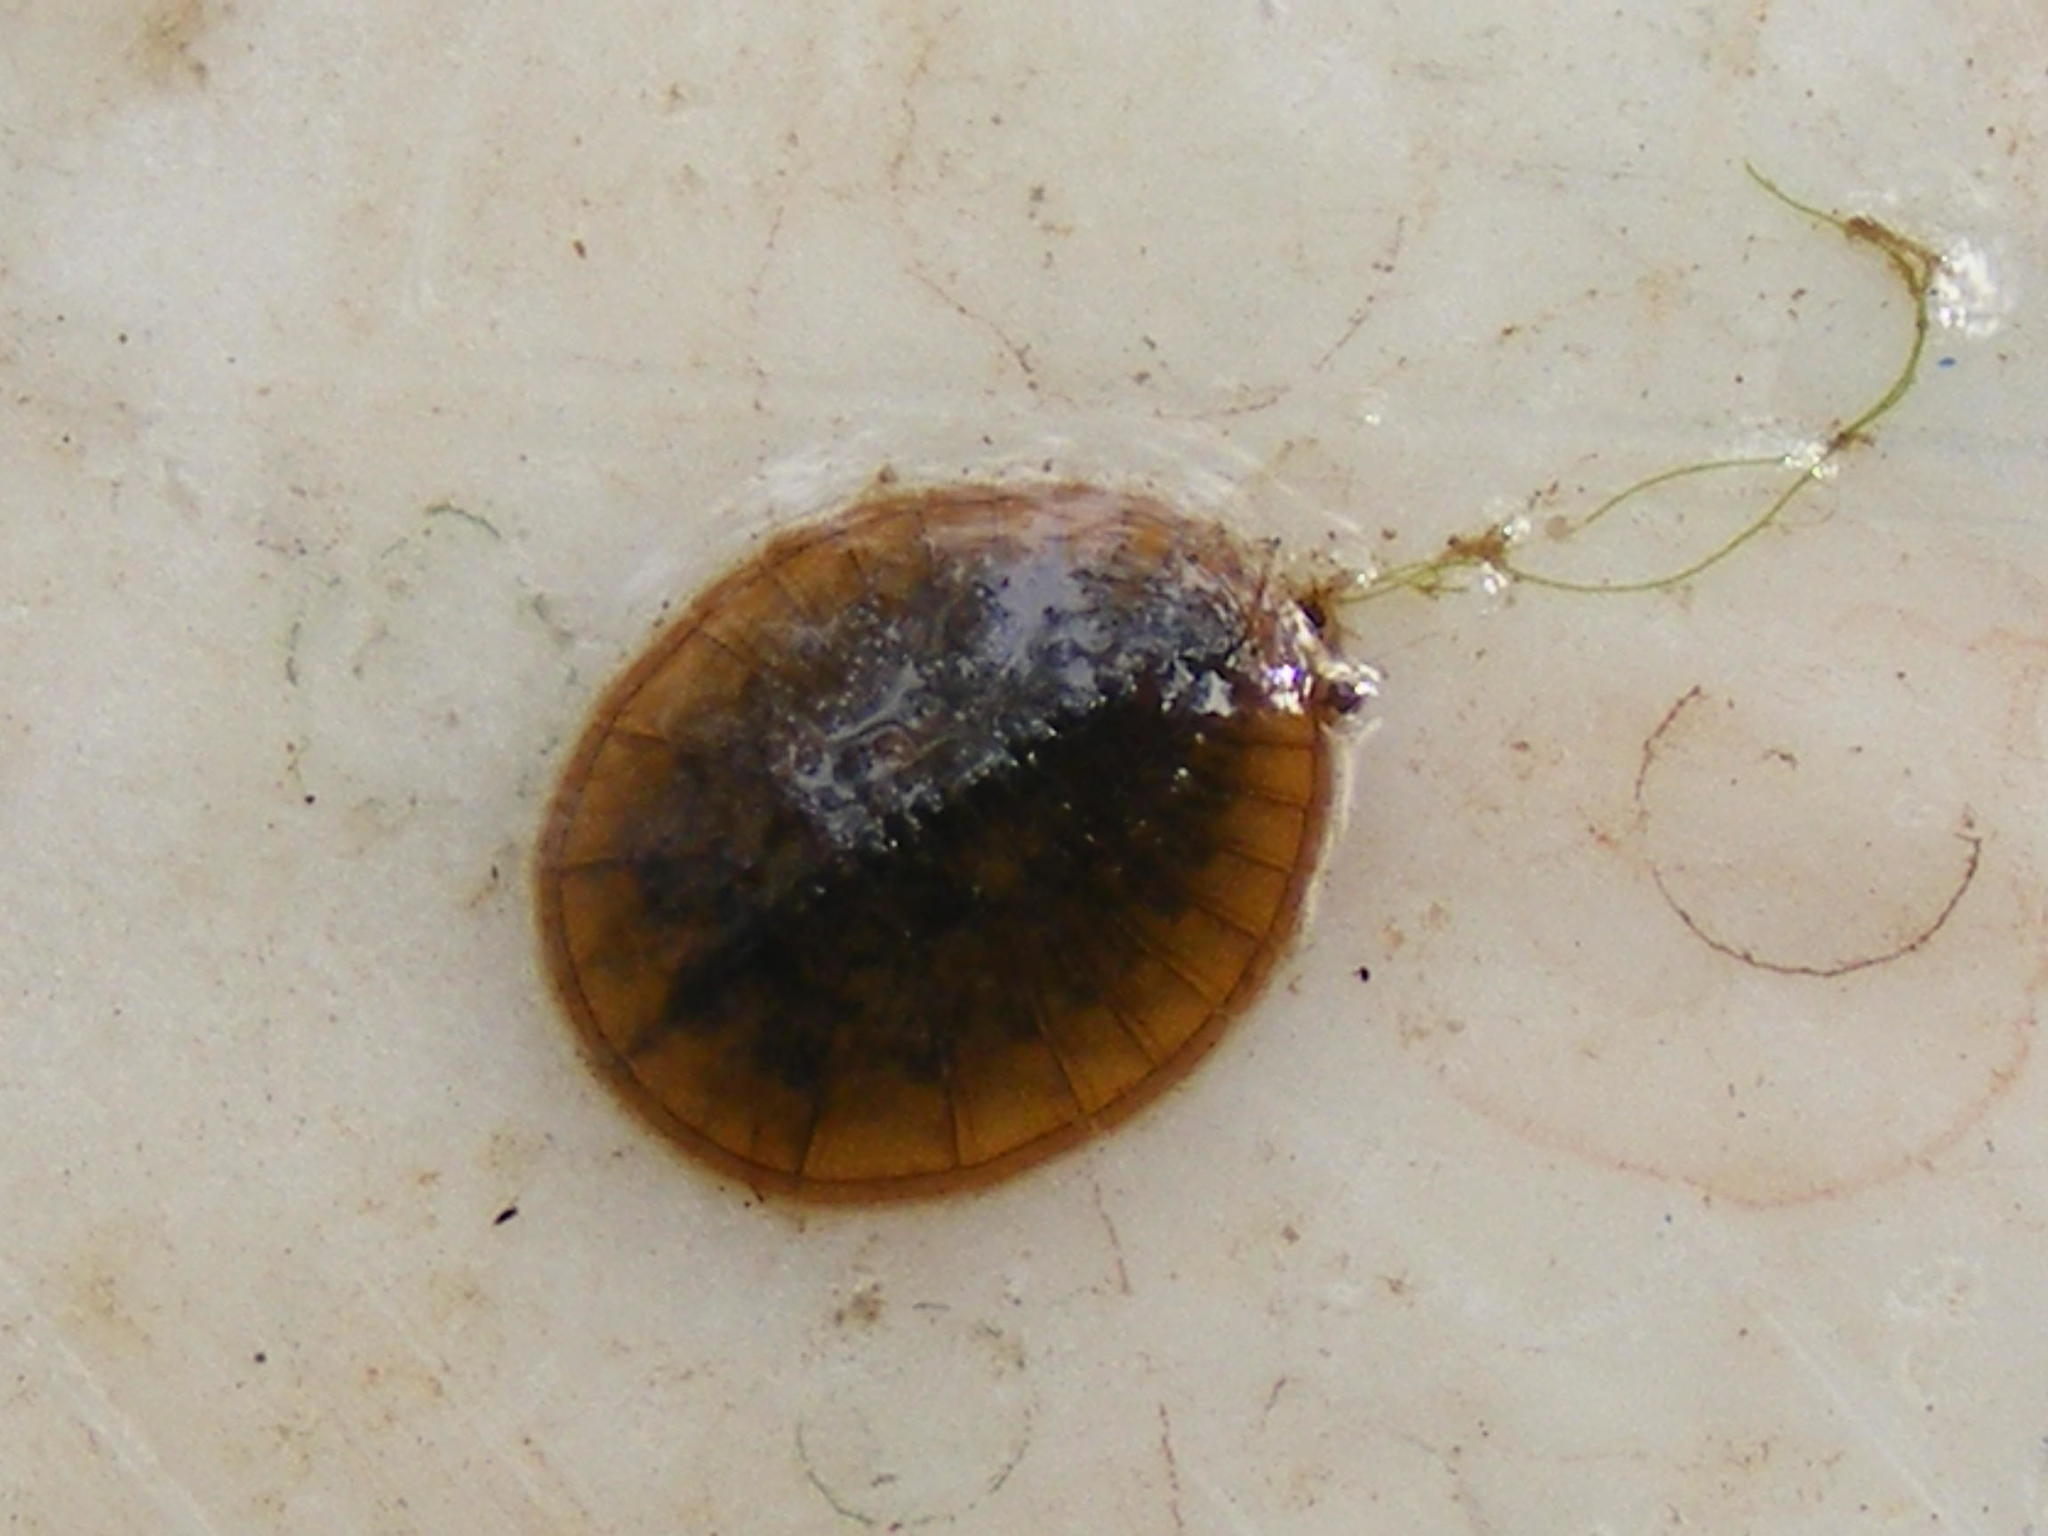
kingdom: Animalia
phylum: Arthropoda
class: Insecta
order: Coleoptera
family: Psephenidae
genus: Afrobrianax
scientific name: Afrobrianax
